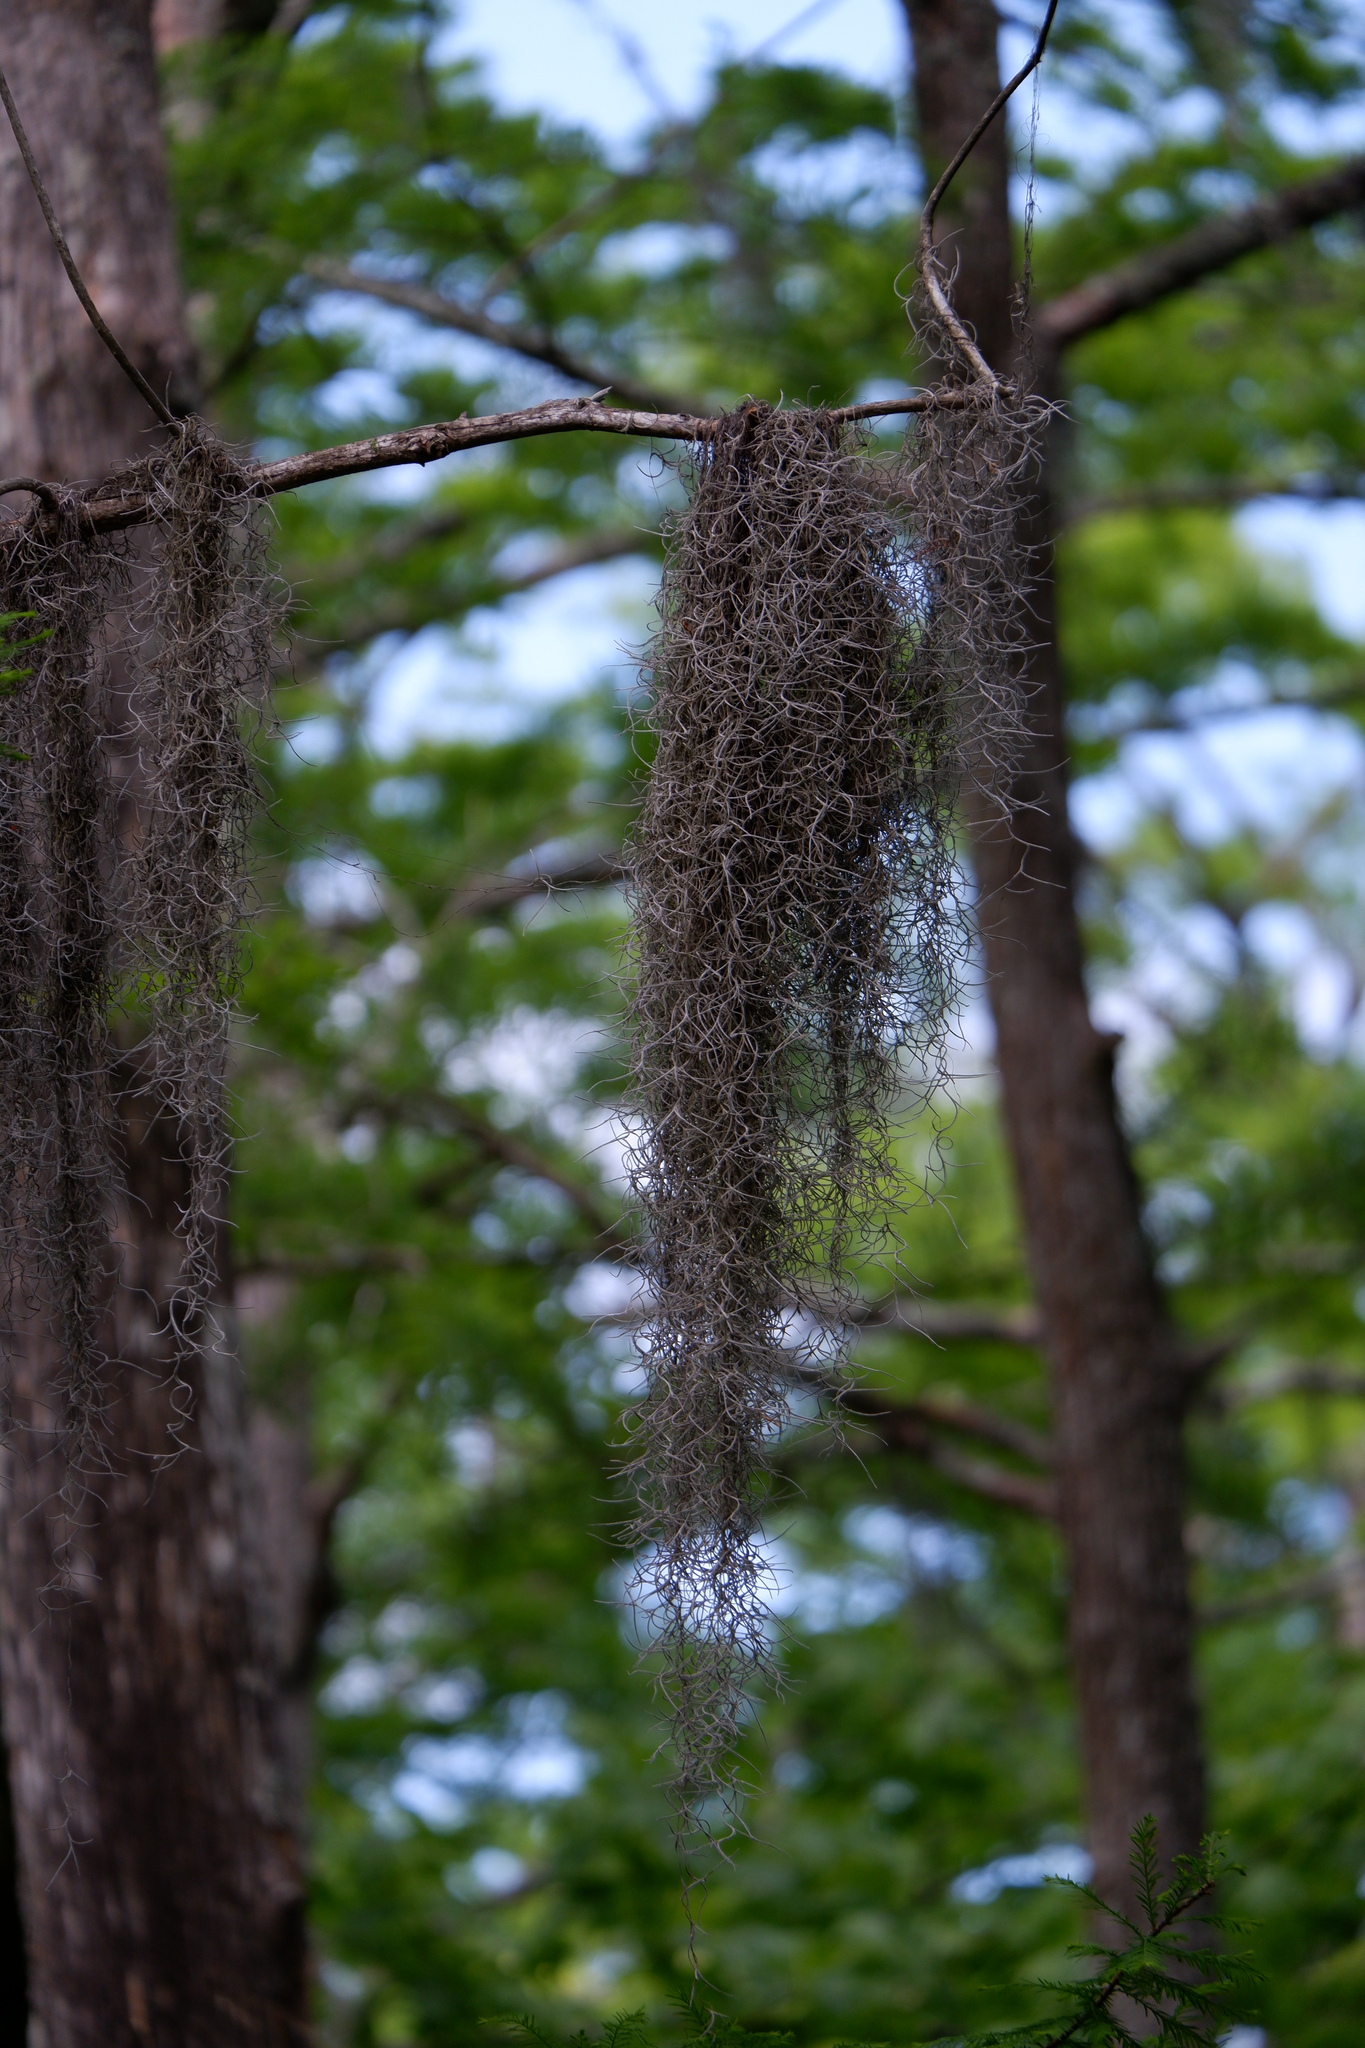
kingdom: Plantae
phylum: Tracheophyta
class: Liliopsida
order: Poales
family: Bromeliaceae
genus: Tillandsia
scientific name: Tillandsia usneoides
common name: Spanish moss
